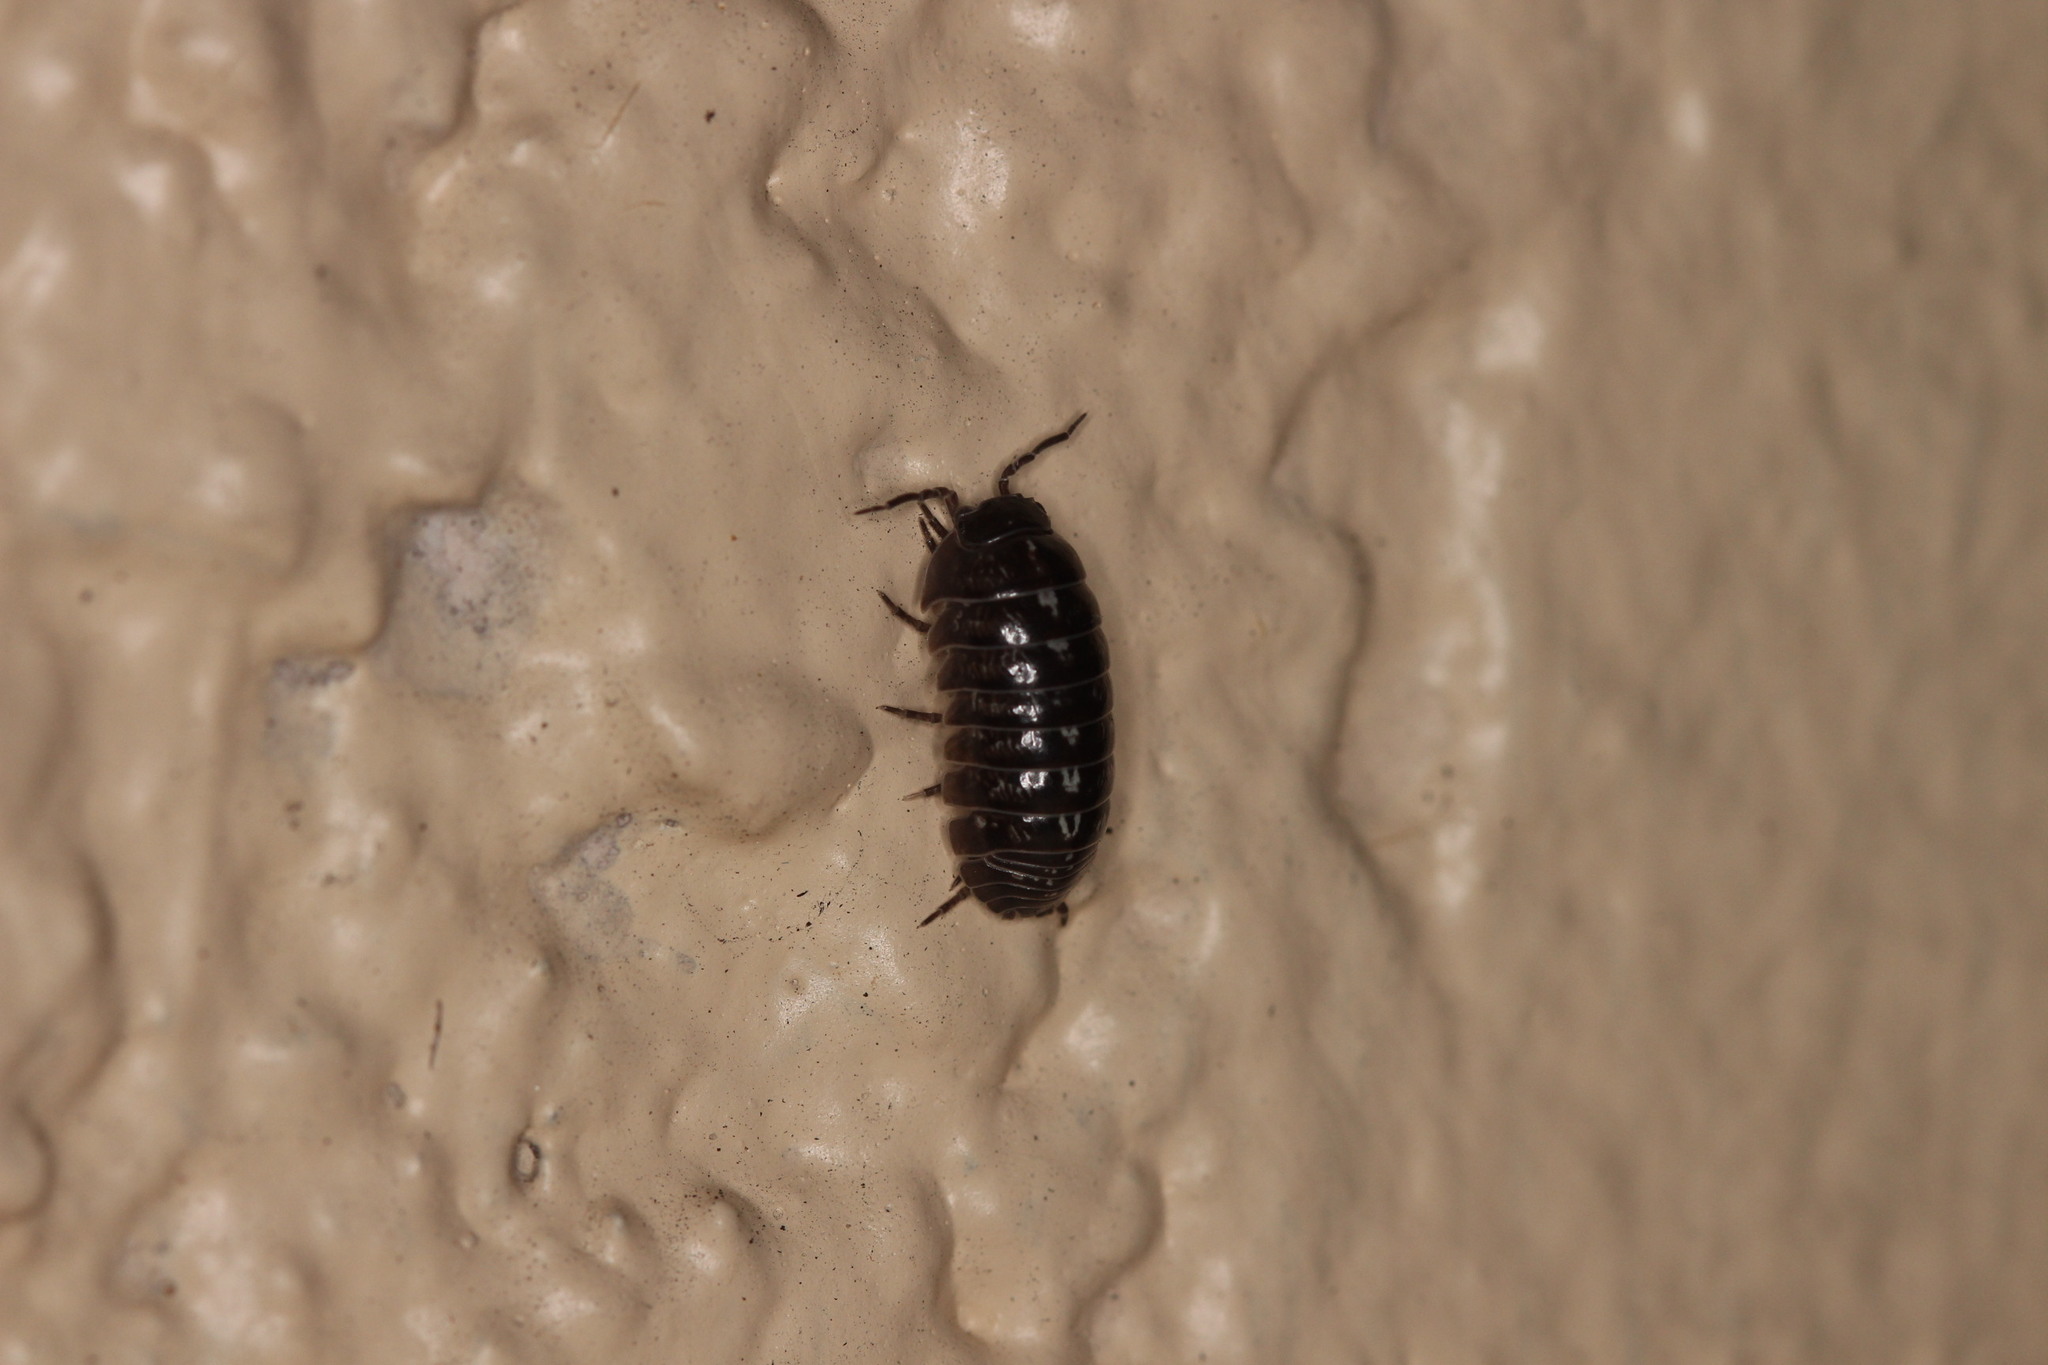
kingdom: Animalia
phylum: Arthropoda
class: Malacostraca
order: Isopoda
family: Armadillidiidae
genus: Armadillidium
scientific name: Armadillidium vulgare
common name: Common pill woodlouse
